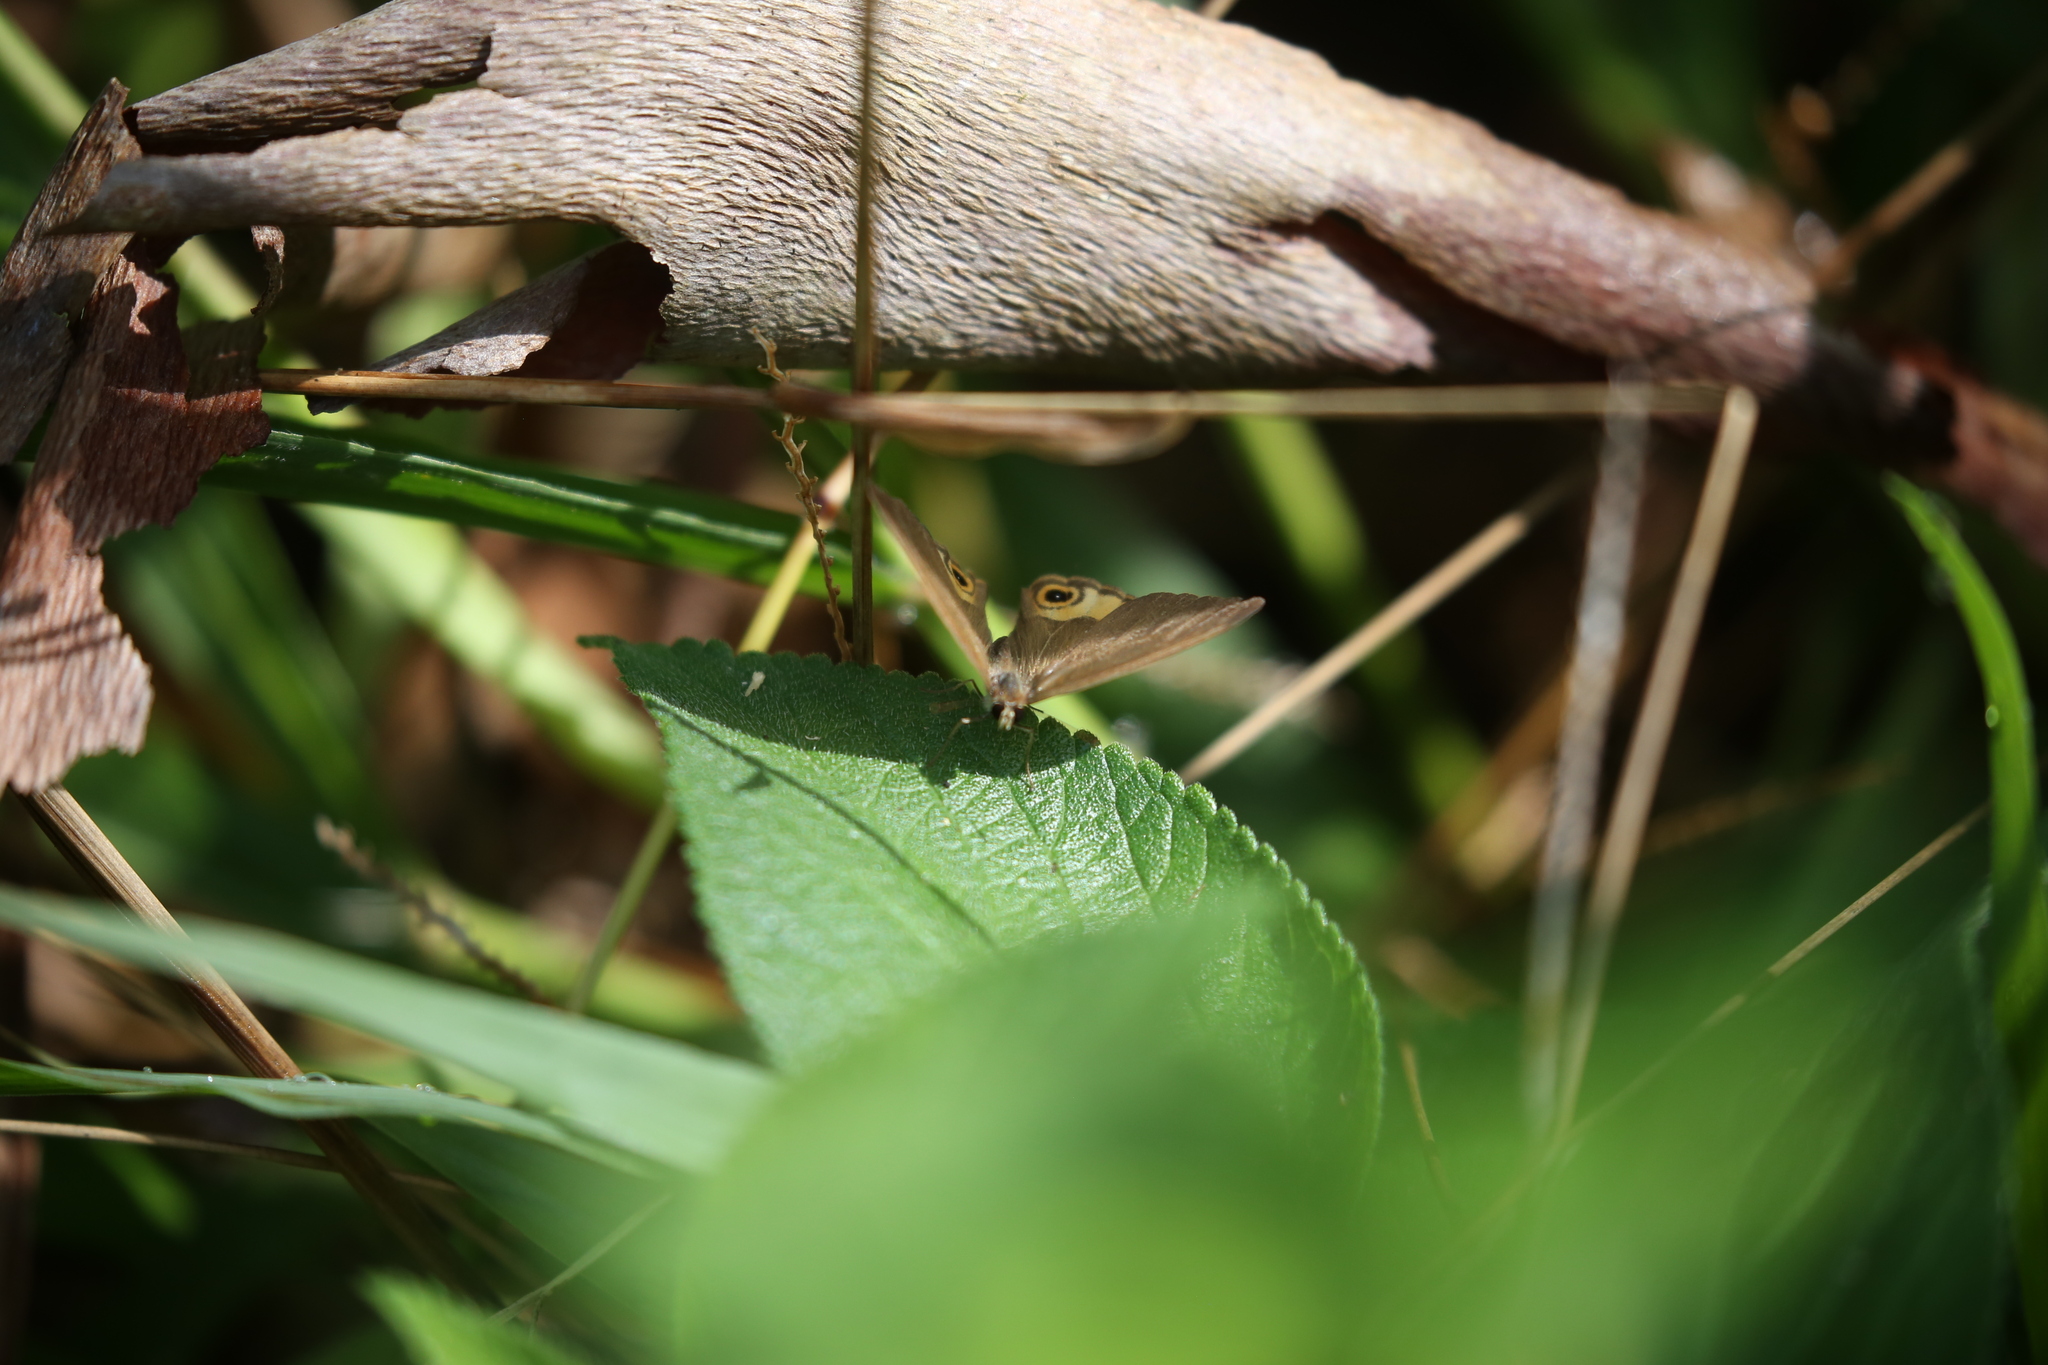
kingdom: Animalia
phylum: Arthropoda
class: Insecta
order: Lepidoptera
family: Nymphalidae
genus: Hypocysta
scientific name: Hypocysta metirius
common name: Brown ringlet
